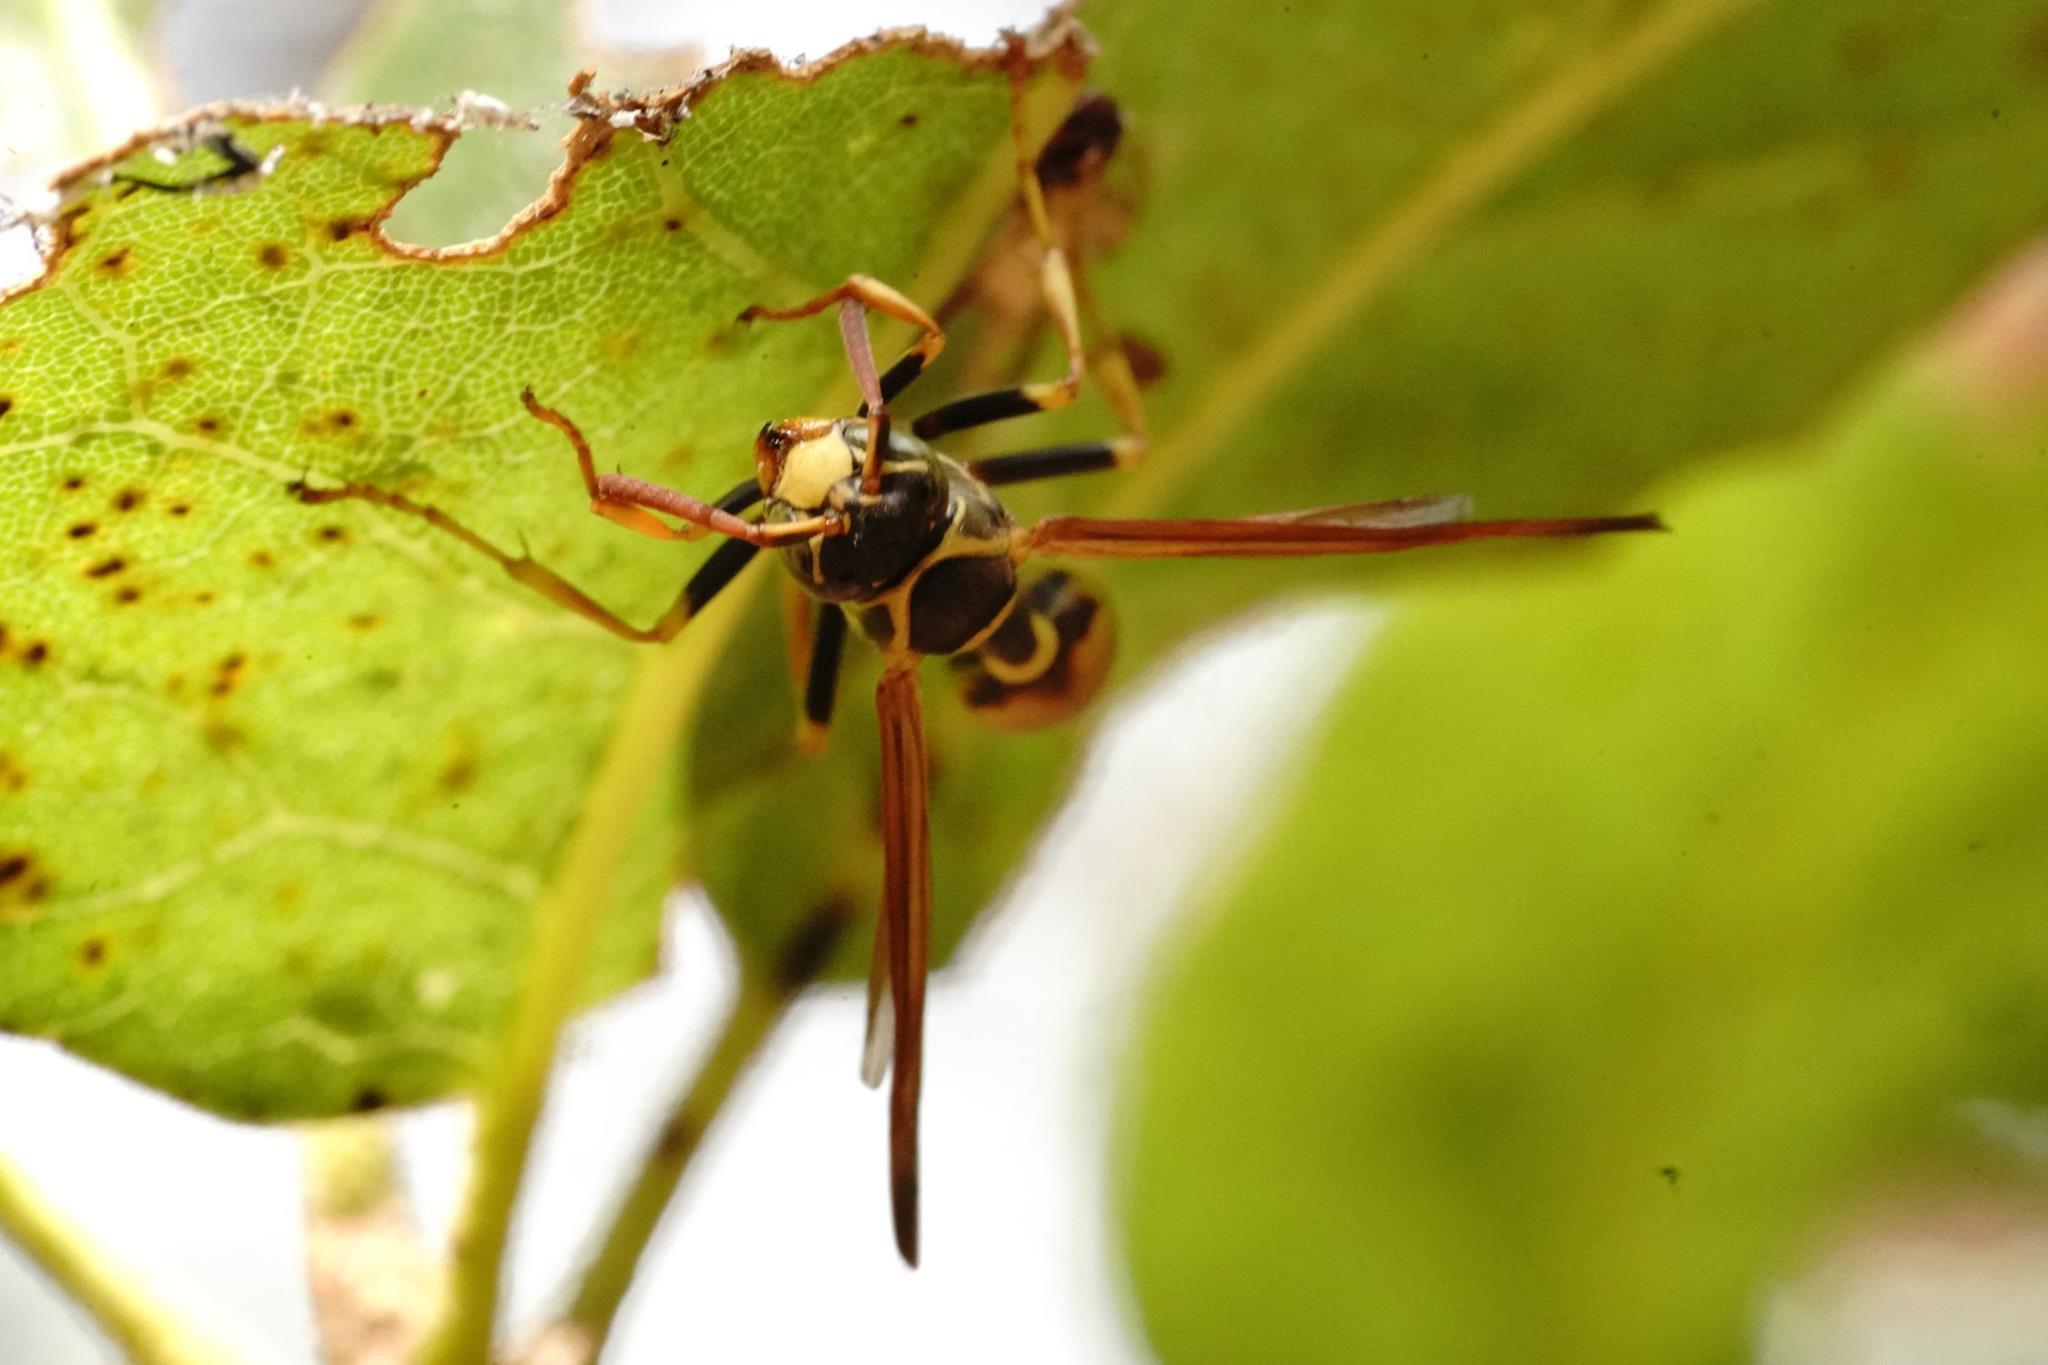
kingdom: Animalia
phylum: Arthropoda
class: Insecta
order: Hymenoptera
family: Vespidae
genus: Mischocyttarus
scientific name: Mischocyttarus flavitarsis
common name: Wasp
